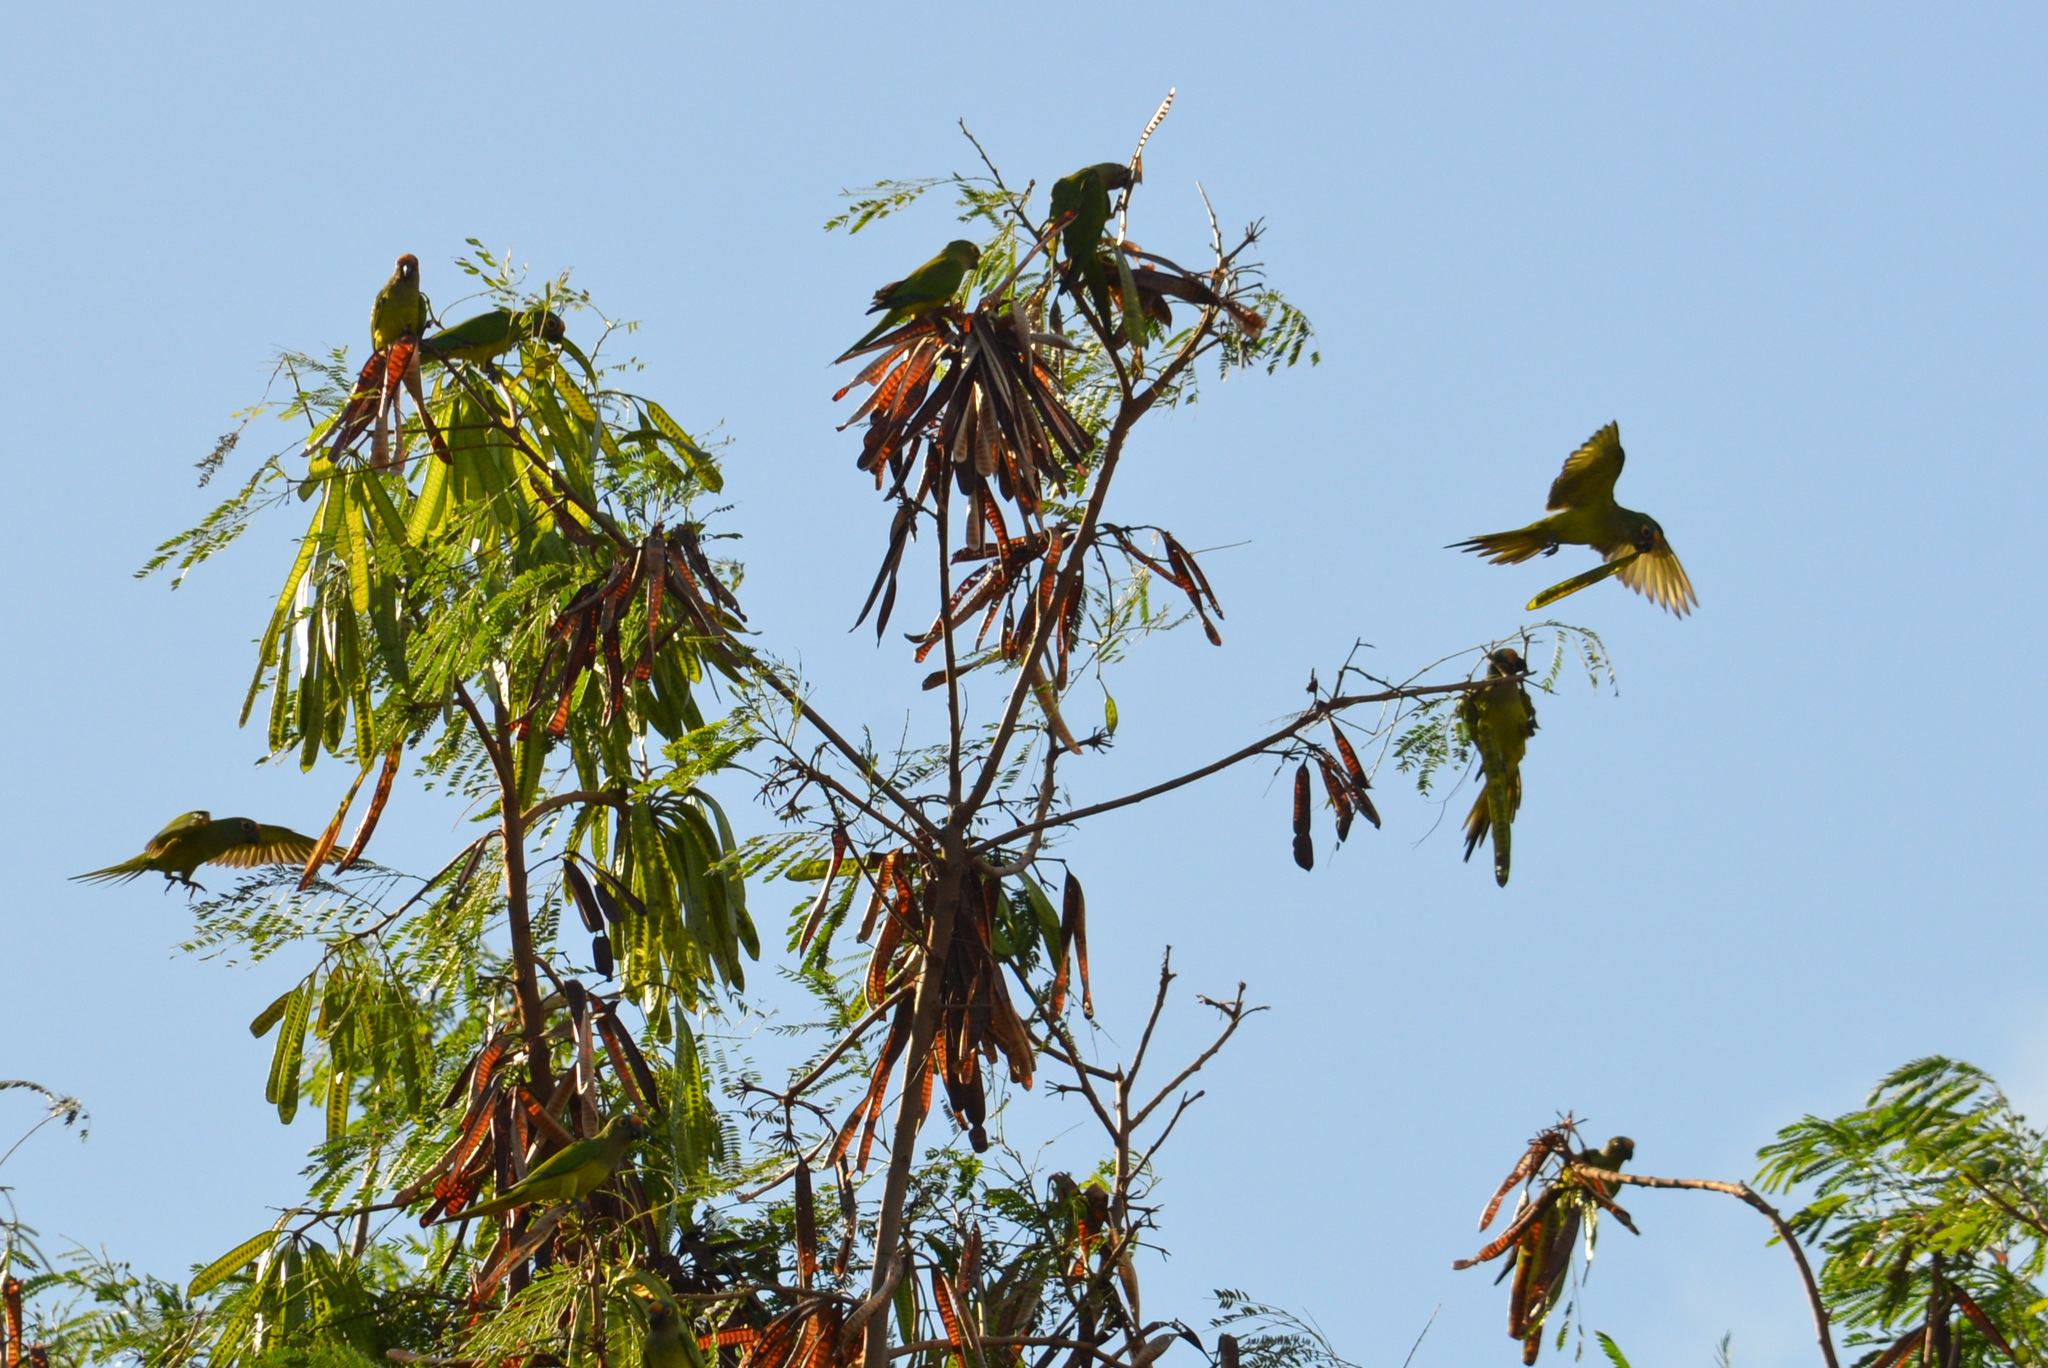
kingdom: Animalia
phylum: Chordata
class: Aves
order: Psittaciformes
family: Psittacidae
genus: Aratinga
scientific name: Aratinga aurea
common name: Peach-fronted parakeet
